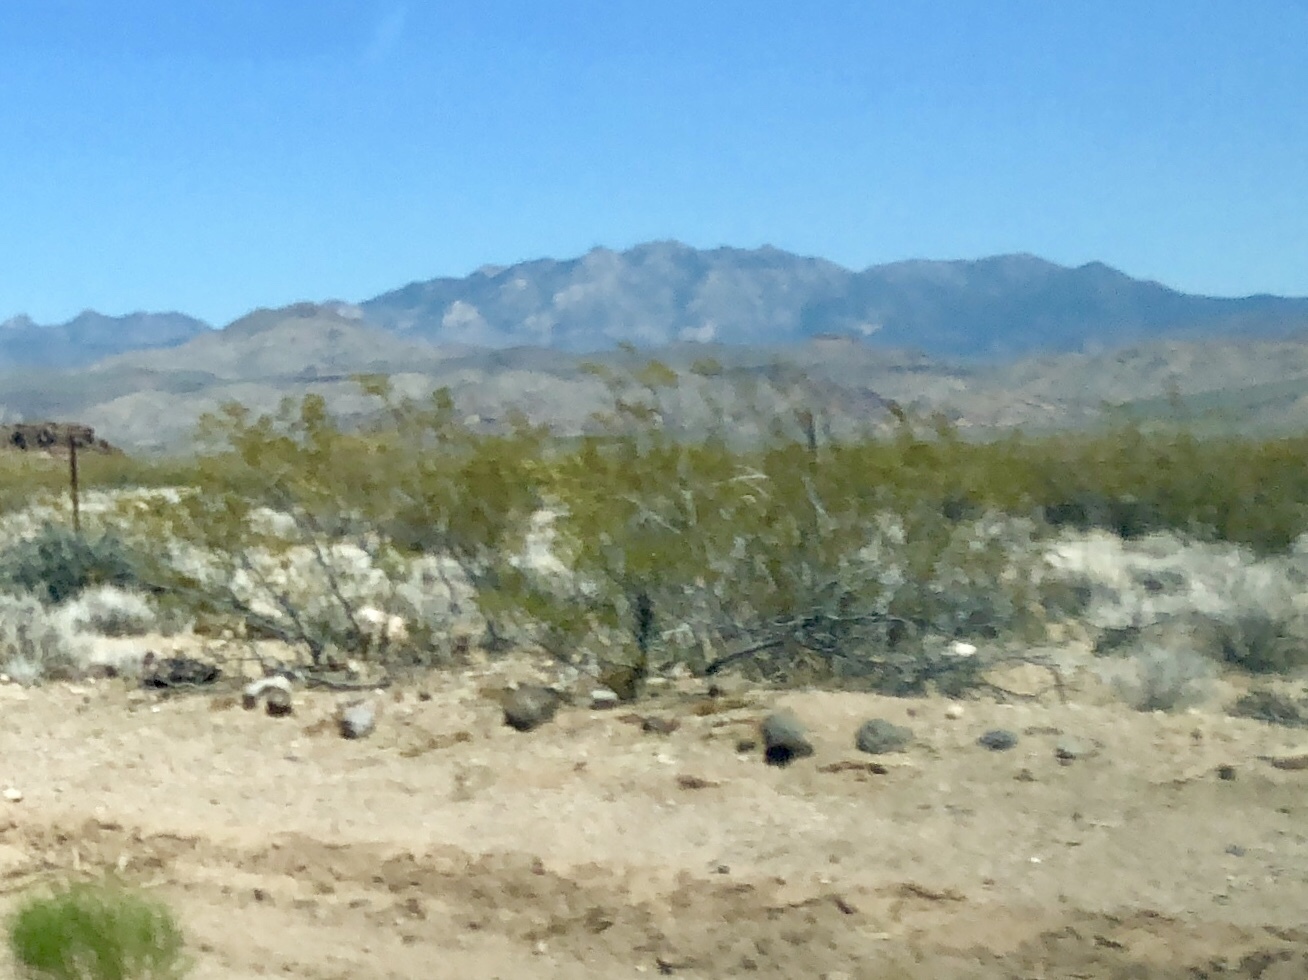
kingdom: Plantae
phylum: Tracheophyta
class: Magnoliopsida
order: Zygophyllales
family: Zygophyllaceae
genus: Larrea
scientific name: Larrea tridentata
